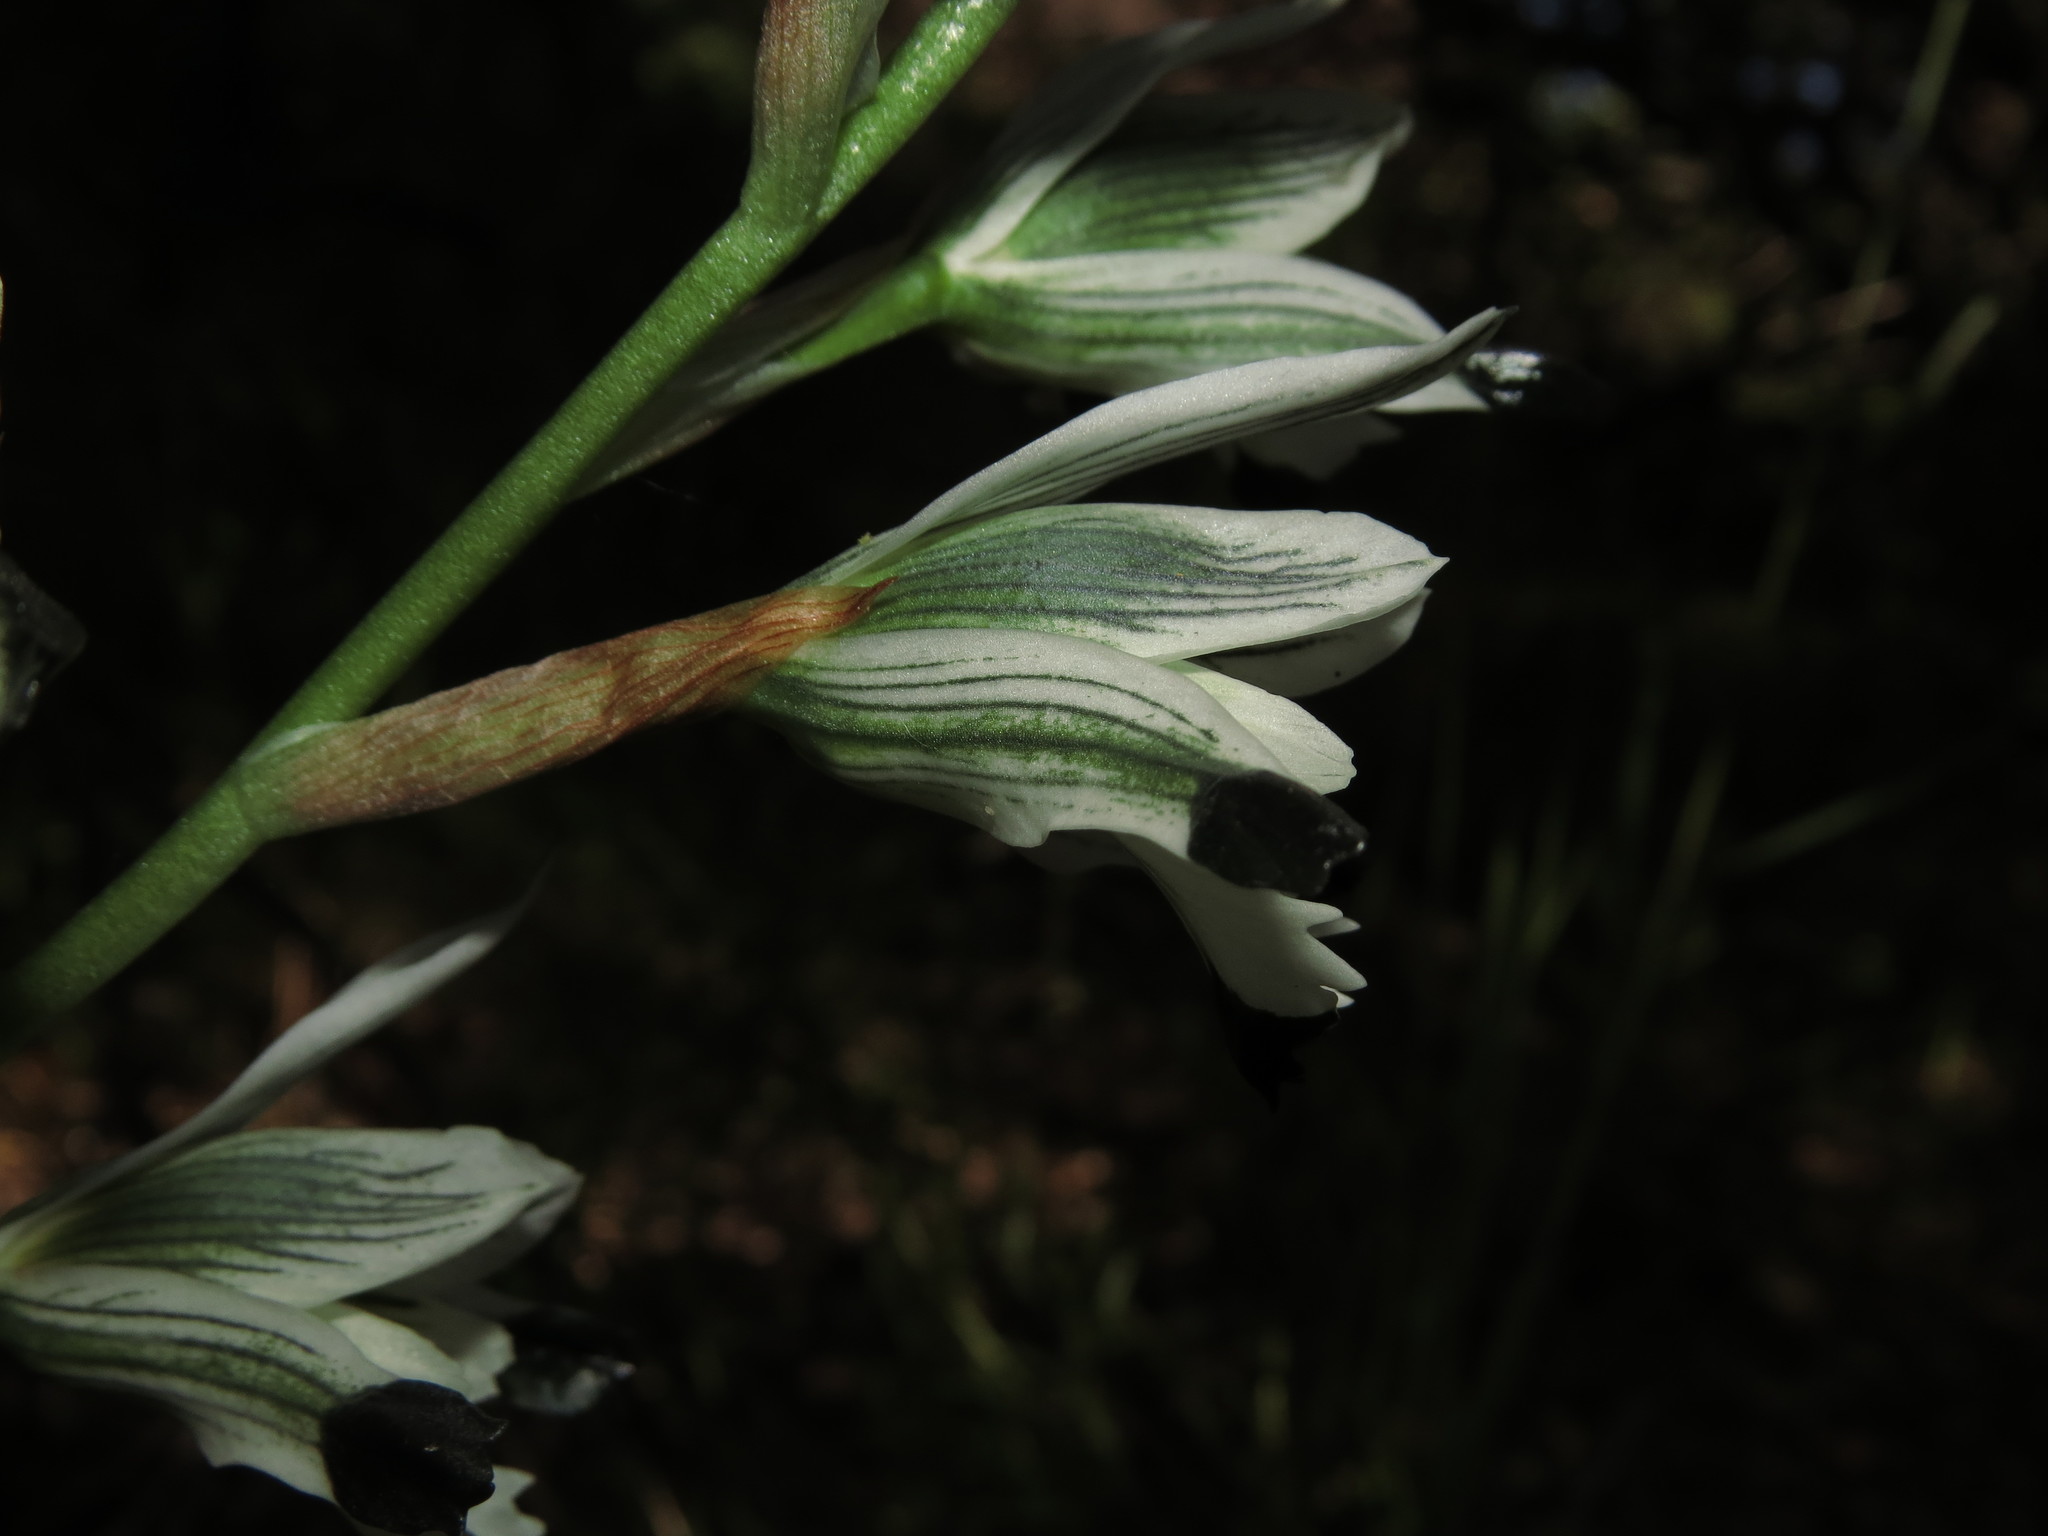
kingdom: Plantae
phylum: Tracheophyta
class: Liliopsida
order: Asparagales
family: Orchidaceae
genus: Chloraea
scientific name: Chloraea bletioides
